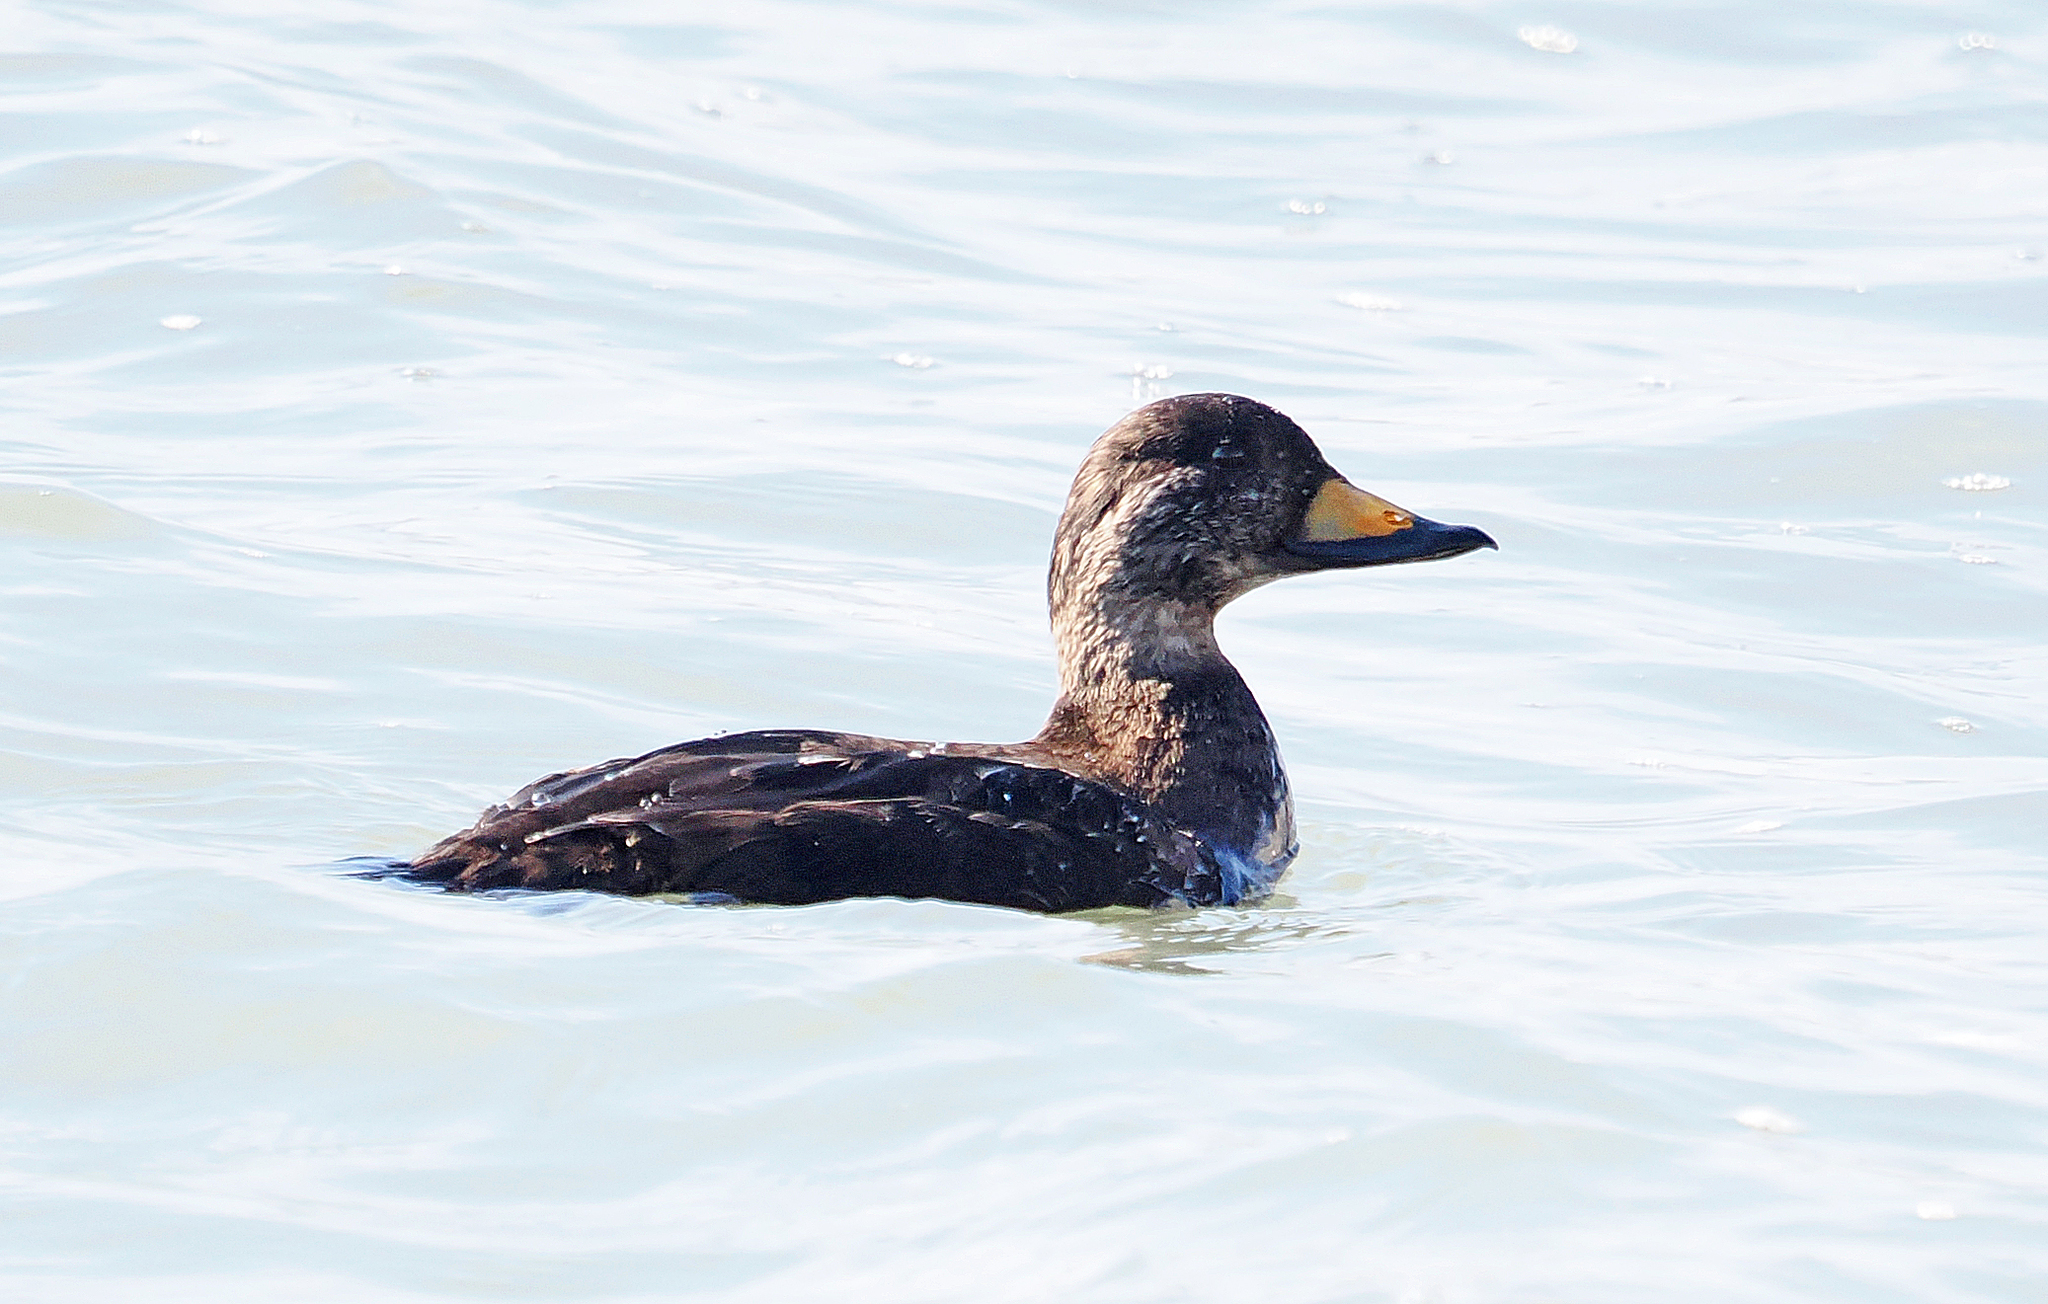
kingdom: Animalia
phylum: Chordata
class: Aves
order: Anseriformes
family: Anatidae
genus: Melanitta
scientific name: Melanitta americana
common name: Black scoter
